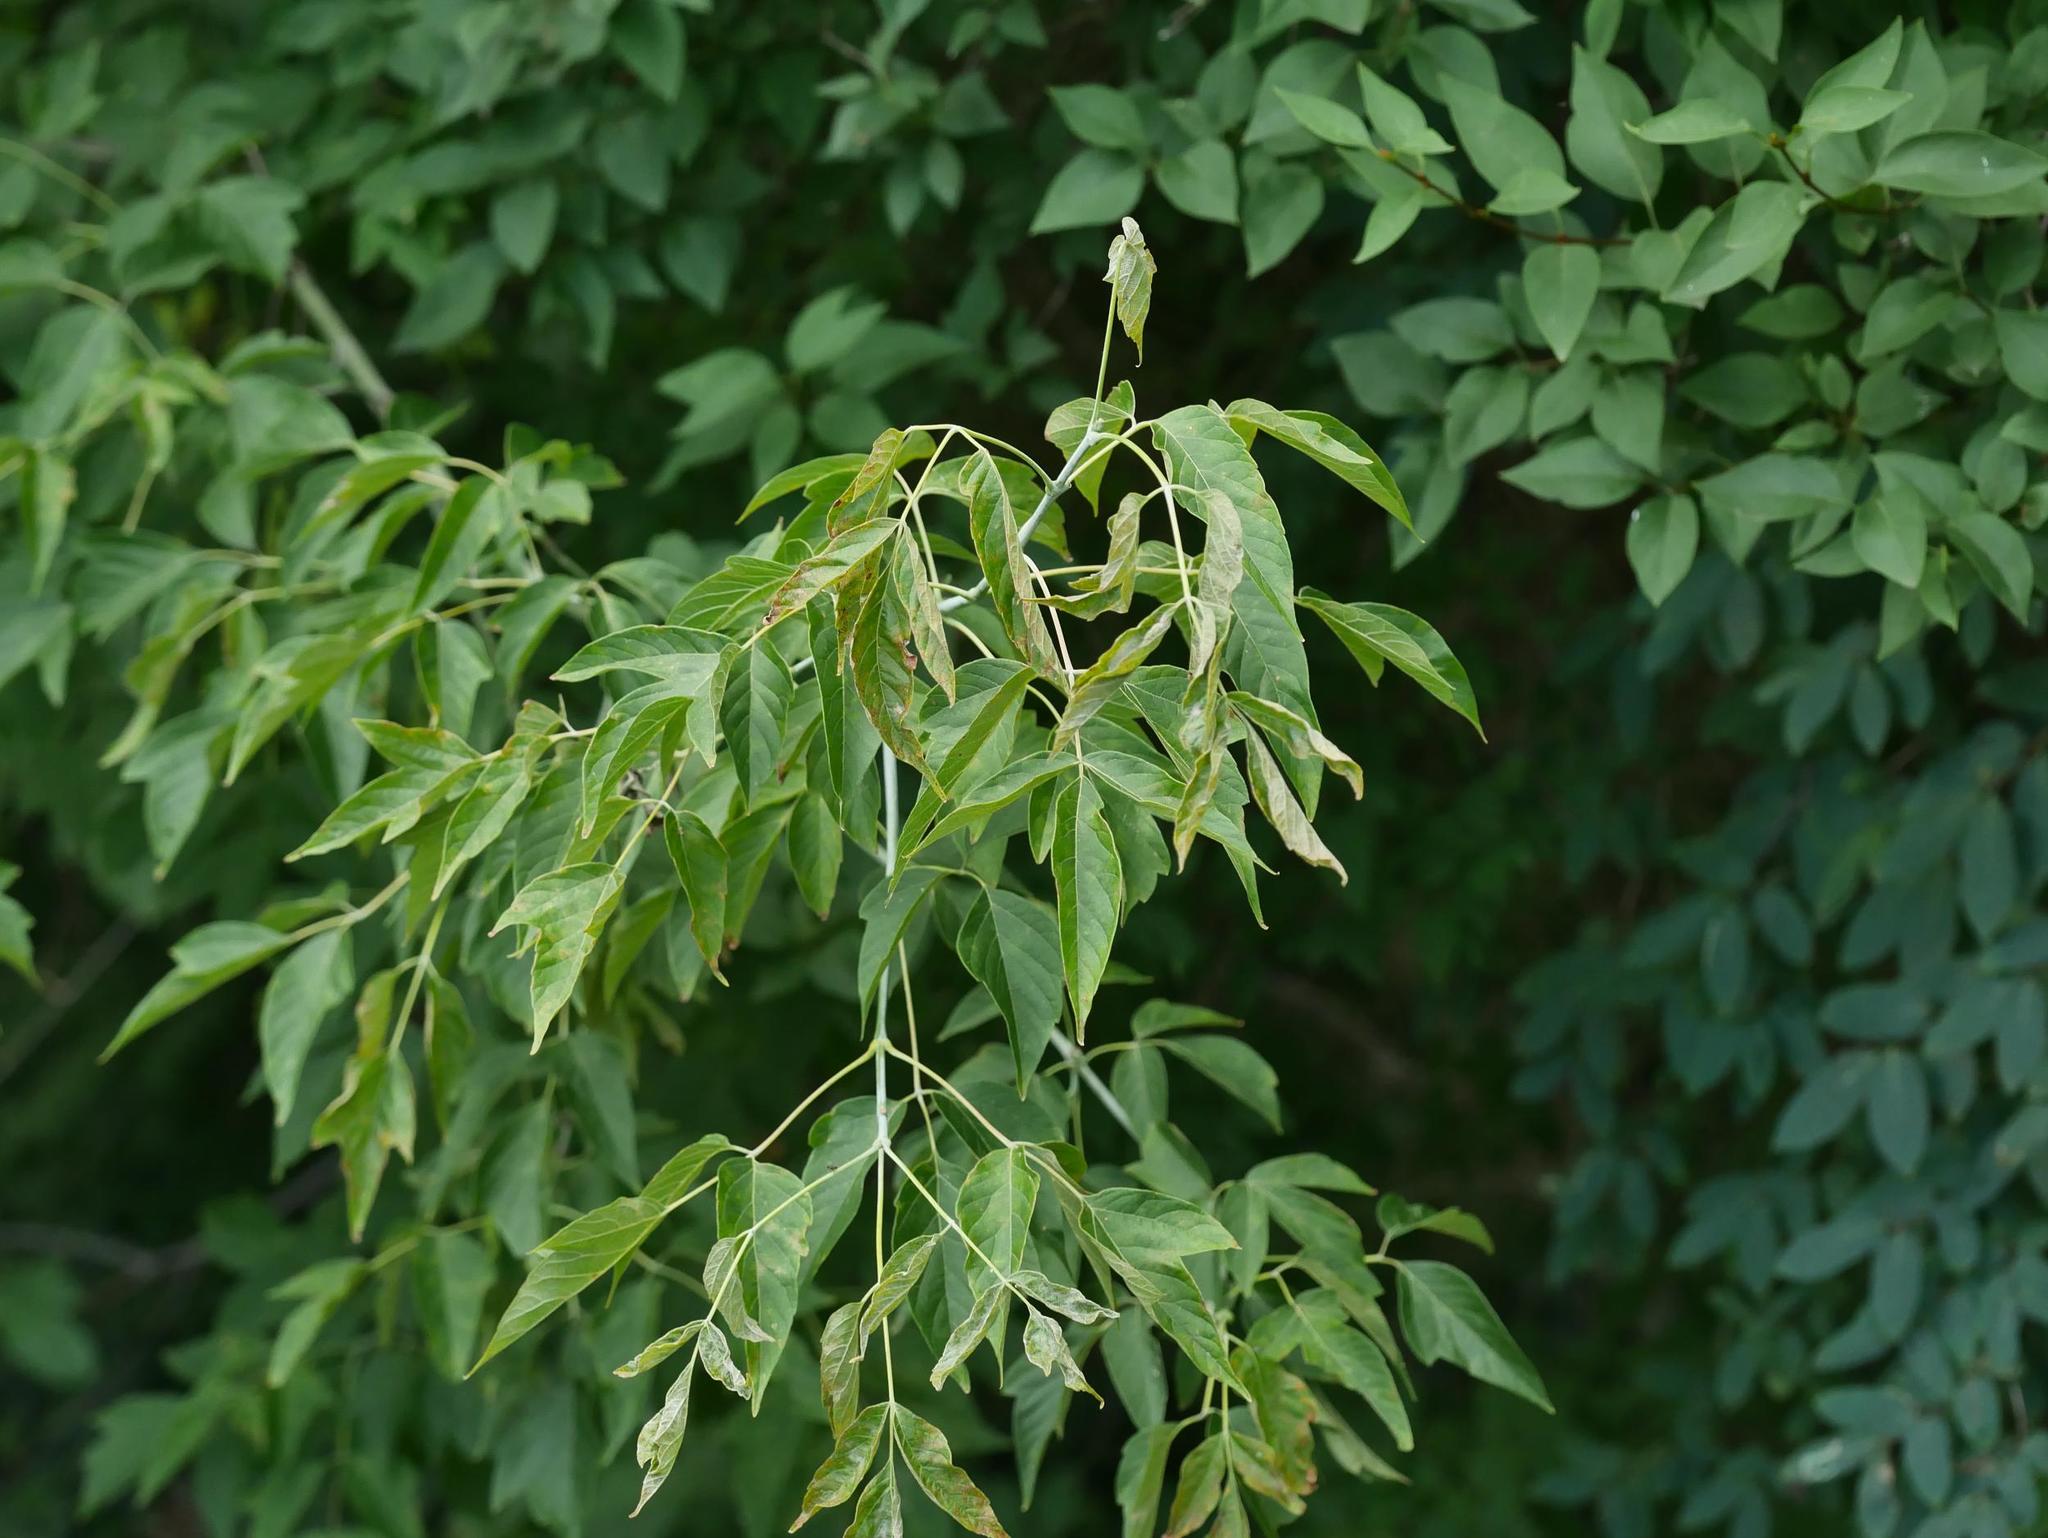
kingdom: Plantae
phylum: Tracheophyta
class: Magnoliopsida
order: Sapindales
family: Sapindaceae
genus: Acer
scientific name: Acer negundo
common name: Ashleaf maple
